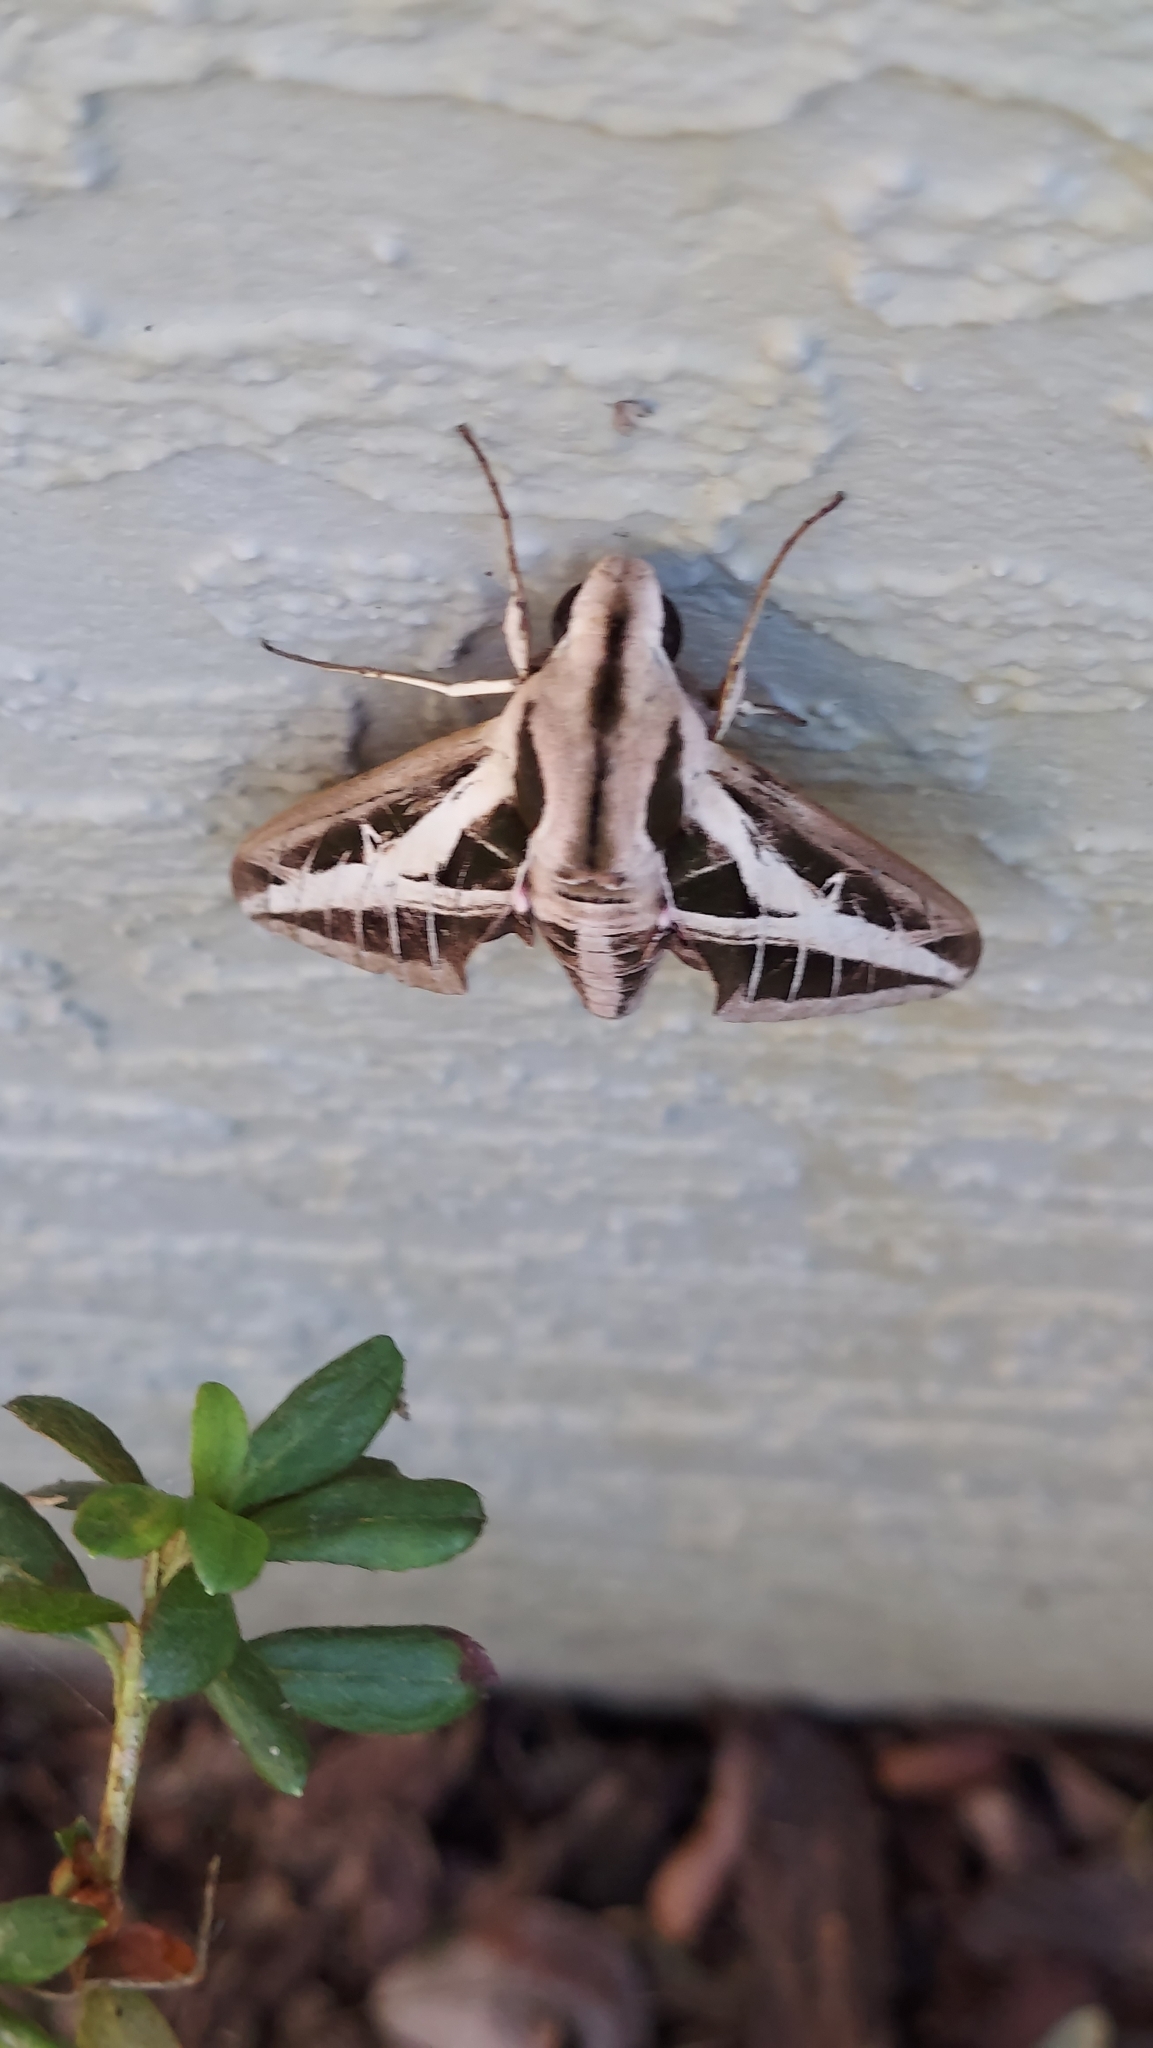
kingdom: Animalia
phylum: Arthropoda
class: Insecta
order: Lepidoptera
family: Sphingidae
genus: Eumorpha
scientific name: Eumorpha fasciatus
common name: Banded sphinx
